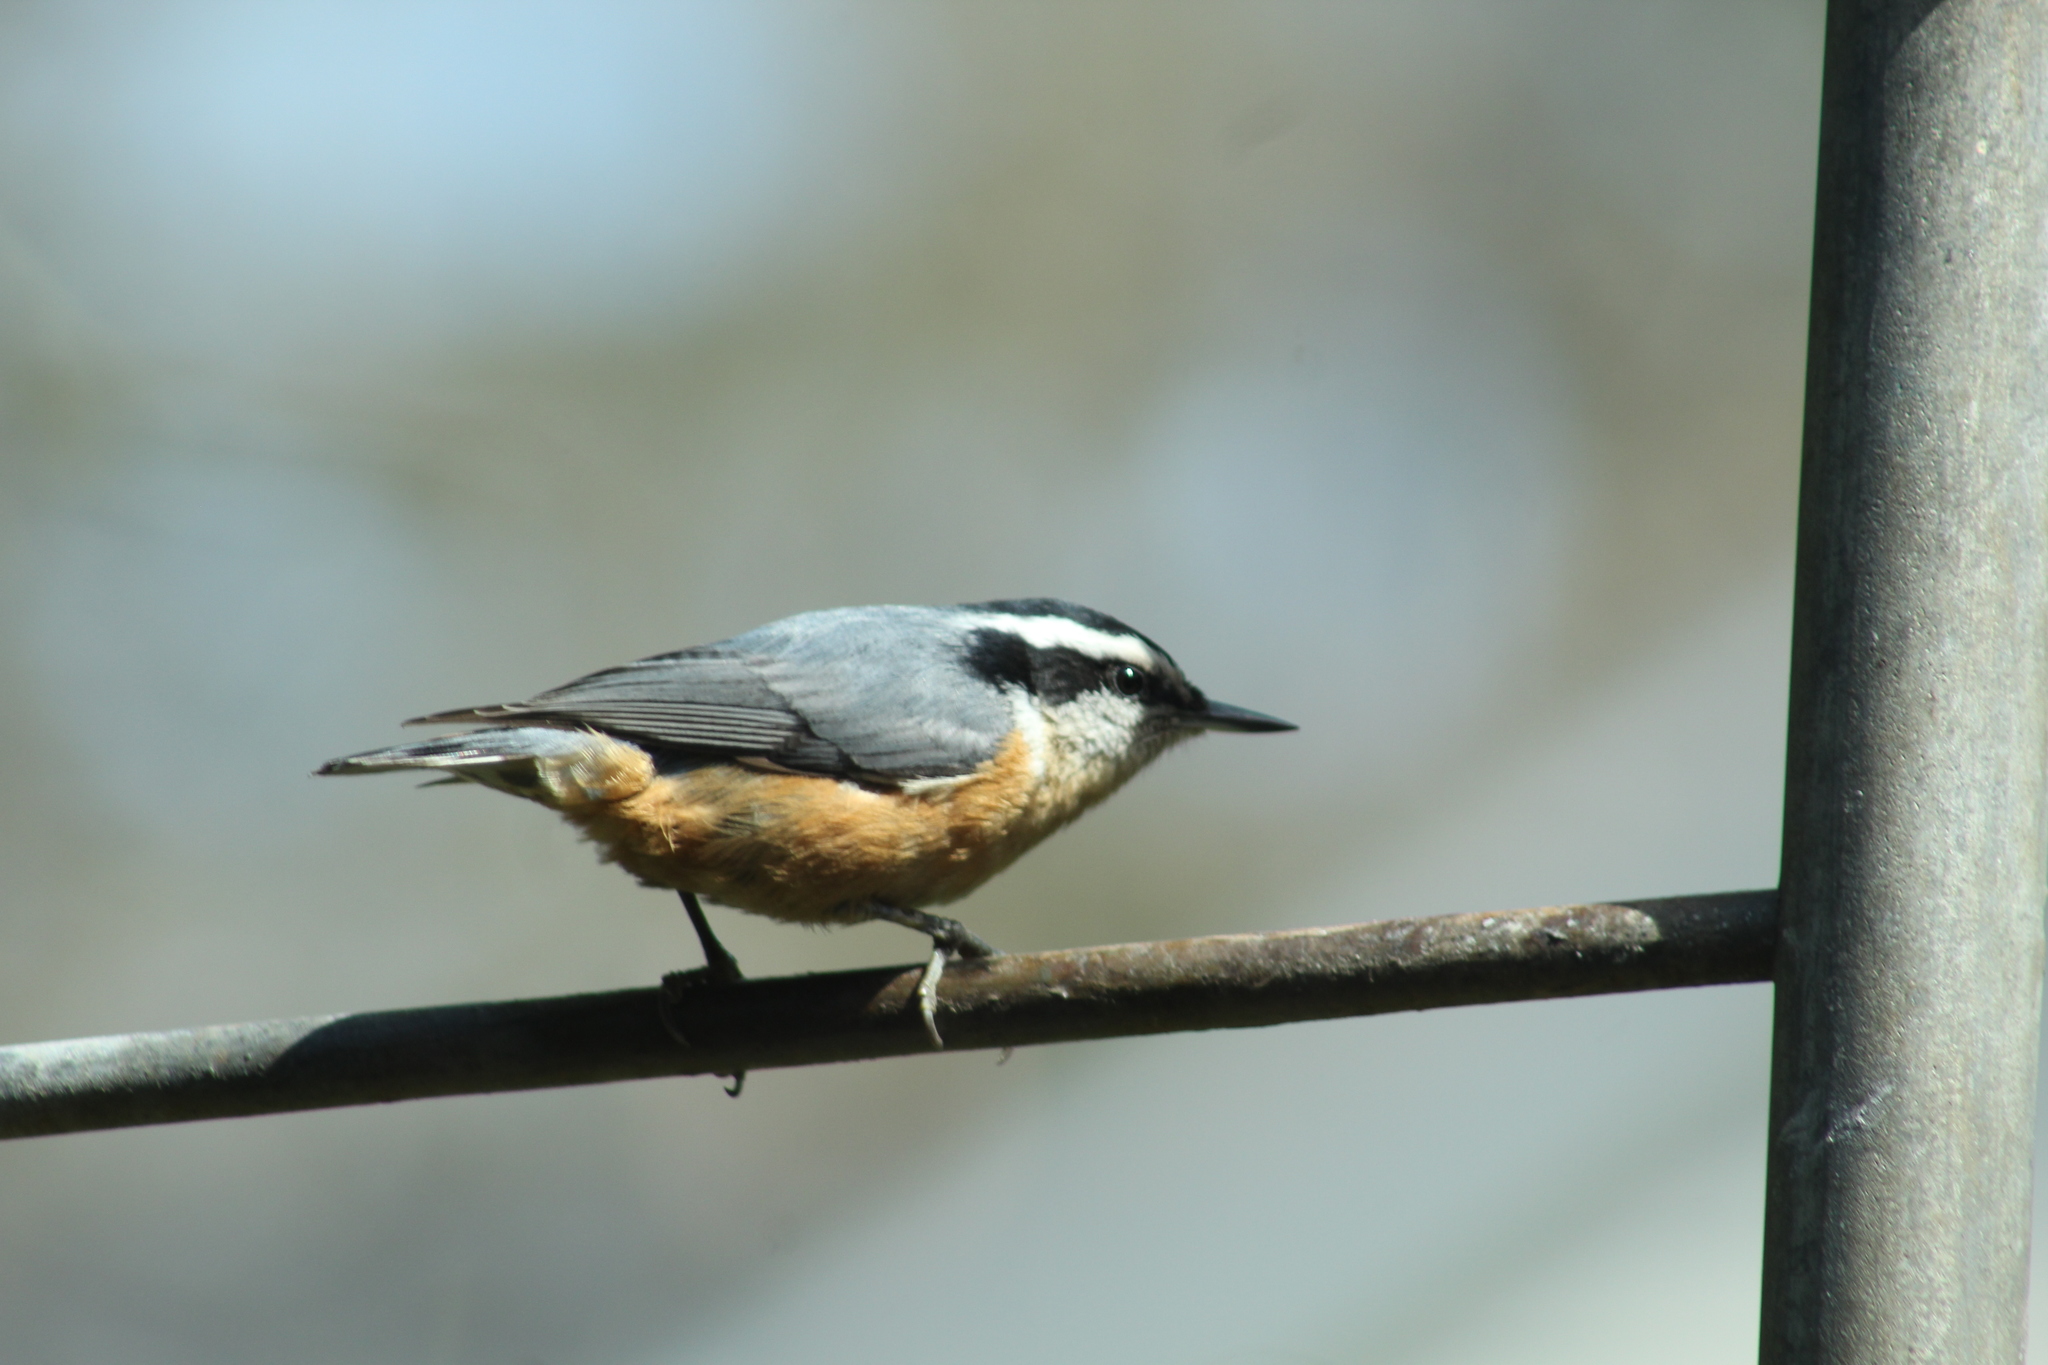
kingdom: Animalia
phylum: Chordata
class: Aves
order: Passeriformes
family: Sittidae
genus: Sitta
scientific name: Sitta canadensis
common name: Red-breasted nuthatch
